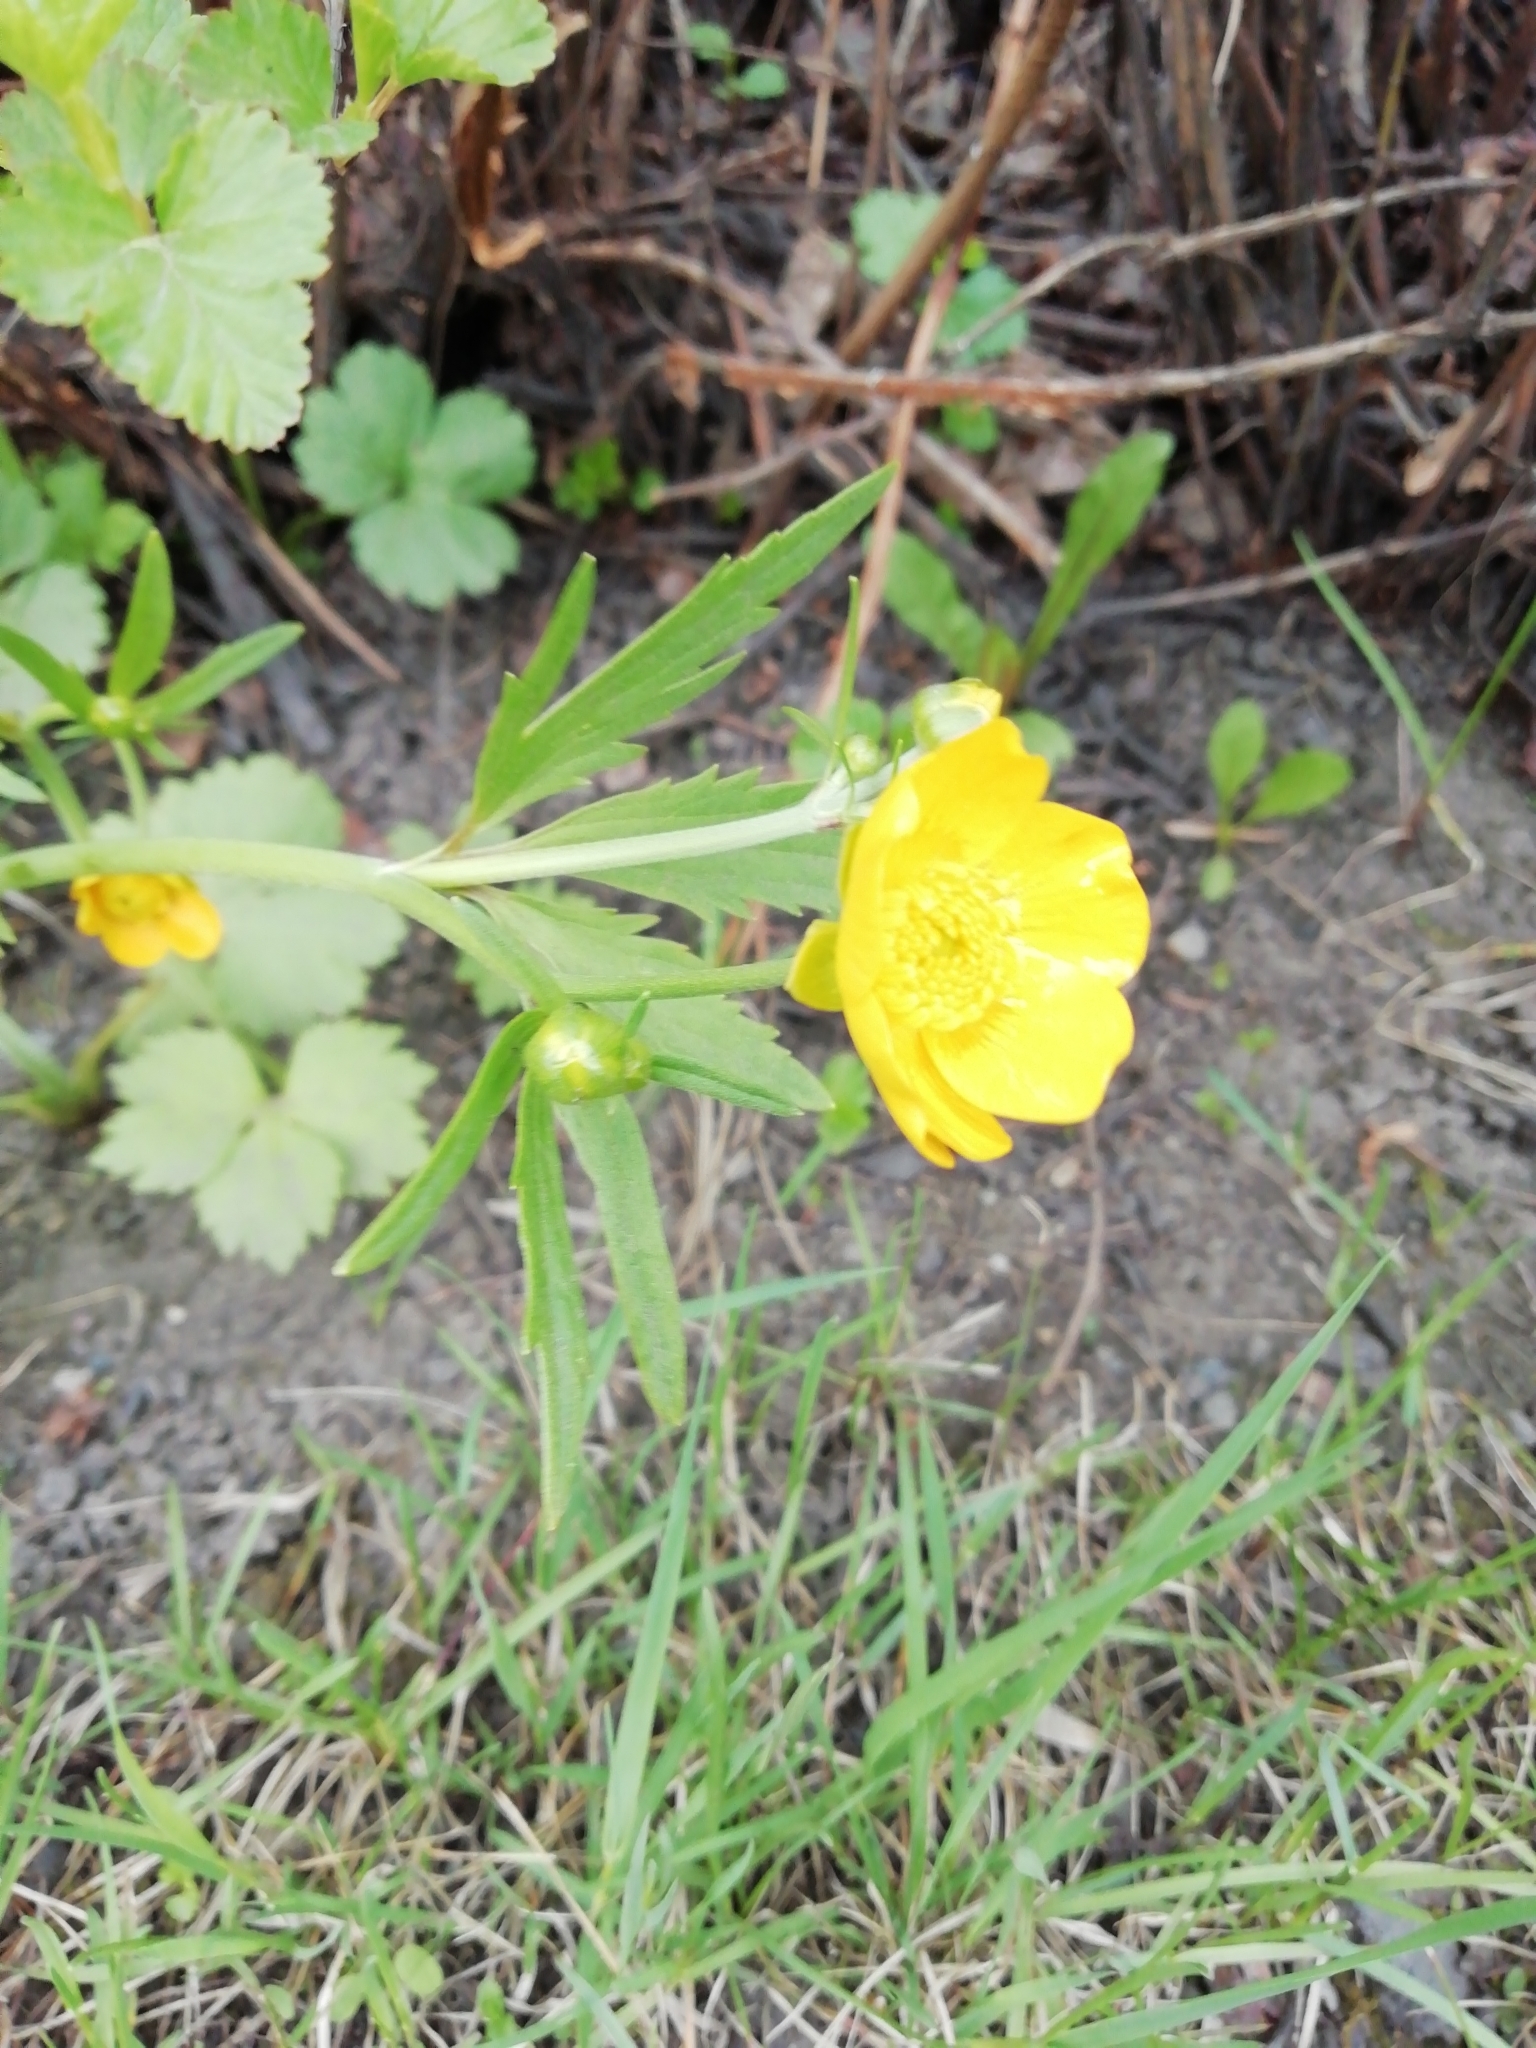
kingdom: Plantae
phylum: Tracheophyta
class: Magnoliopsida
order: Ranunculales
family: Ranunculaceae
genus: Ranunculus
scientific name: Ranunculus repens
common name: Creeping buttercup
